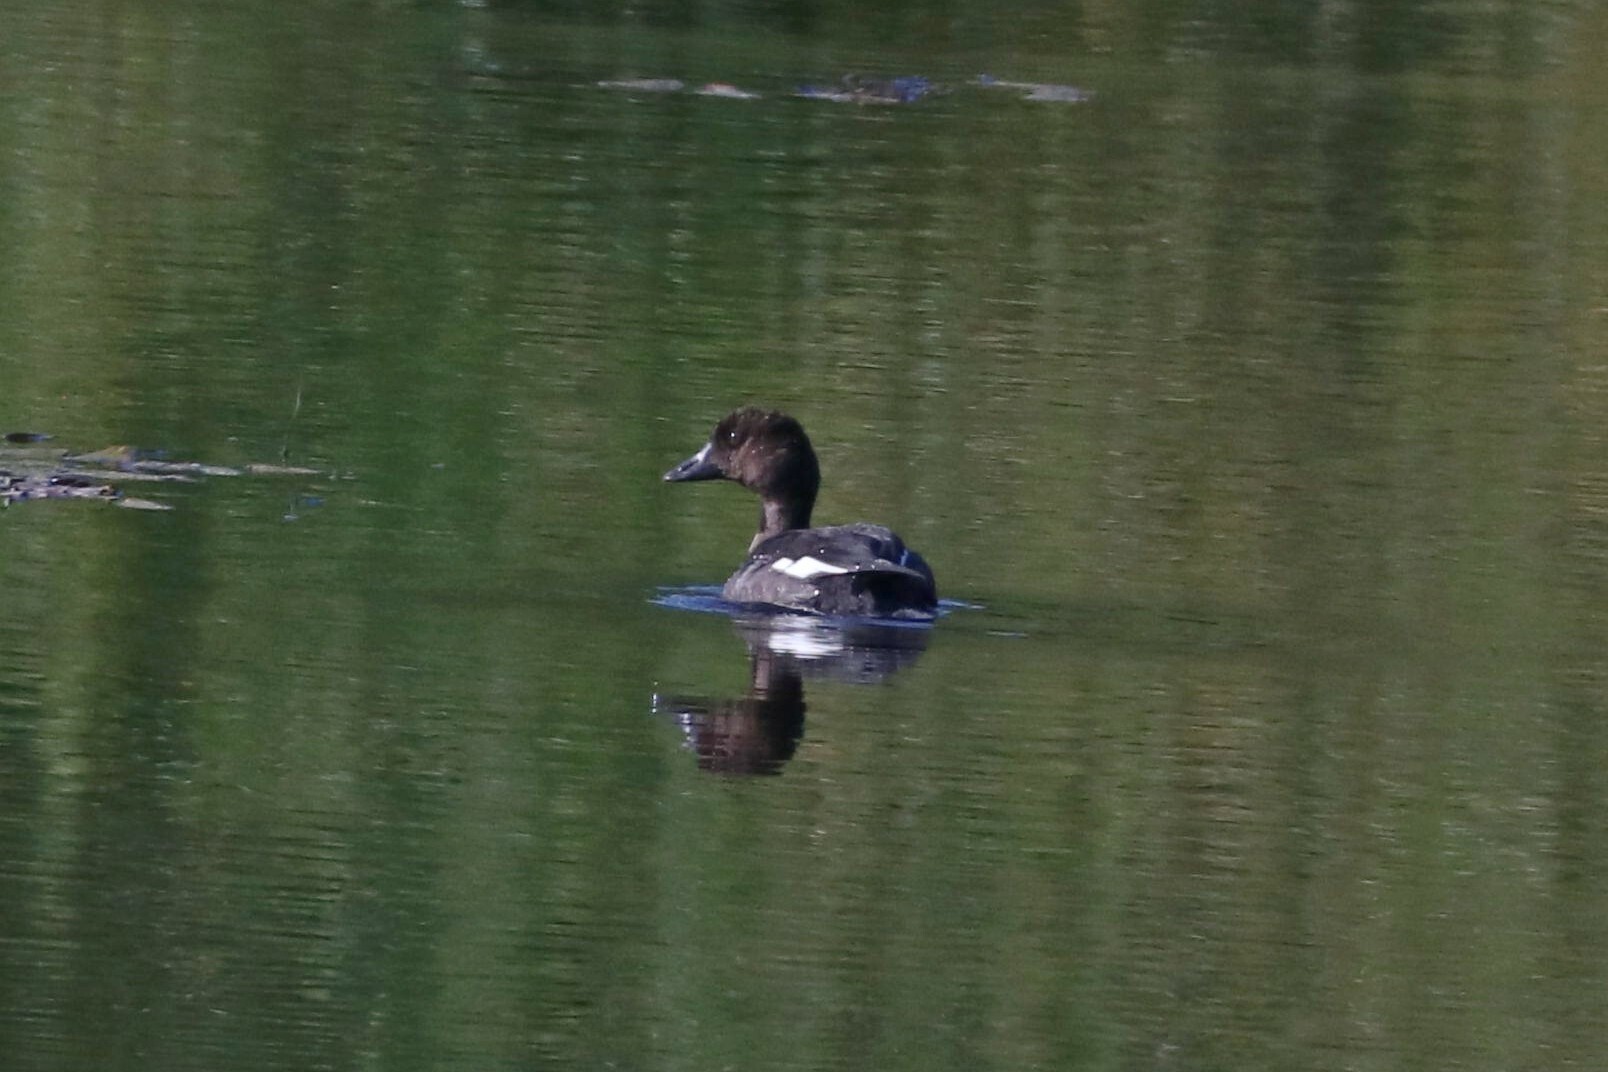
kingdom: Animalia
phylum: Chordata
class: Aves
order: Anseriformes
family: Anatidae
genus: Bucephala
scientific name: Bucephala clangula
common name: Common goldeneye
